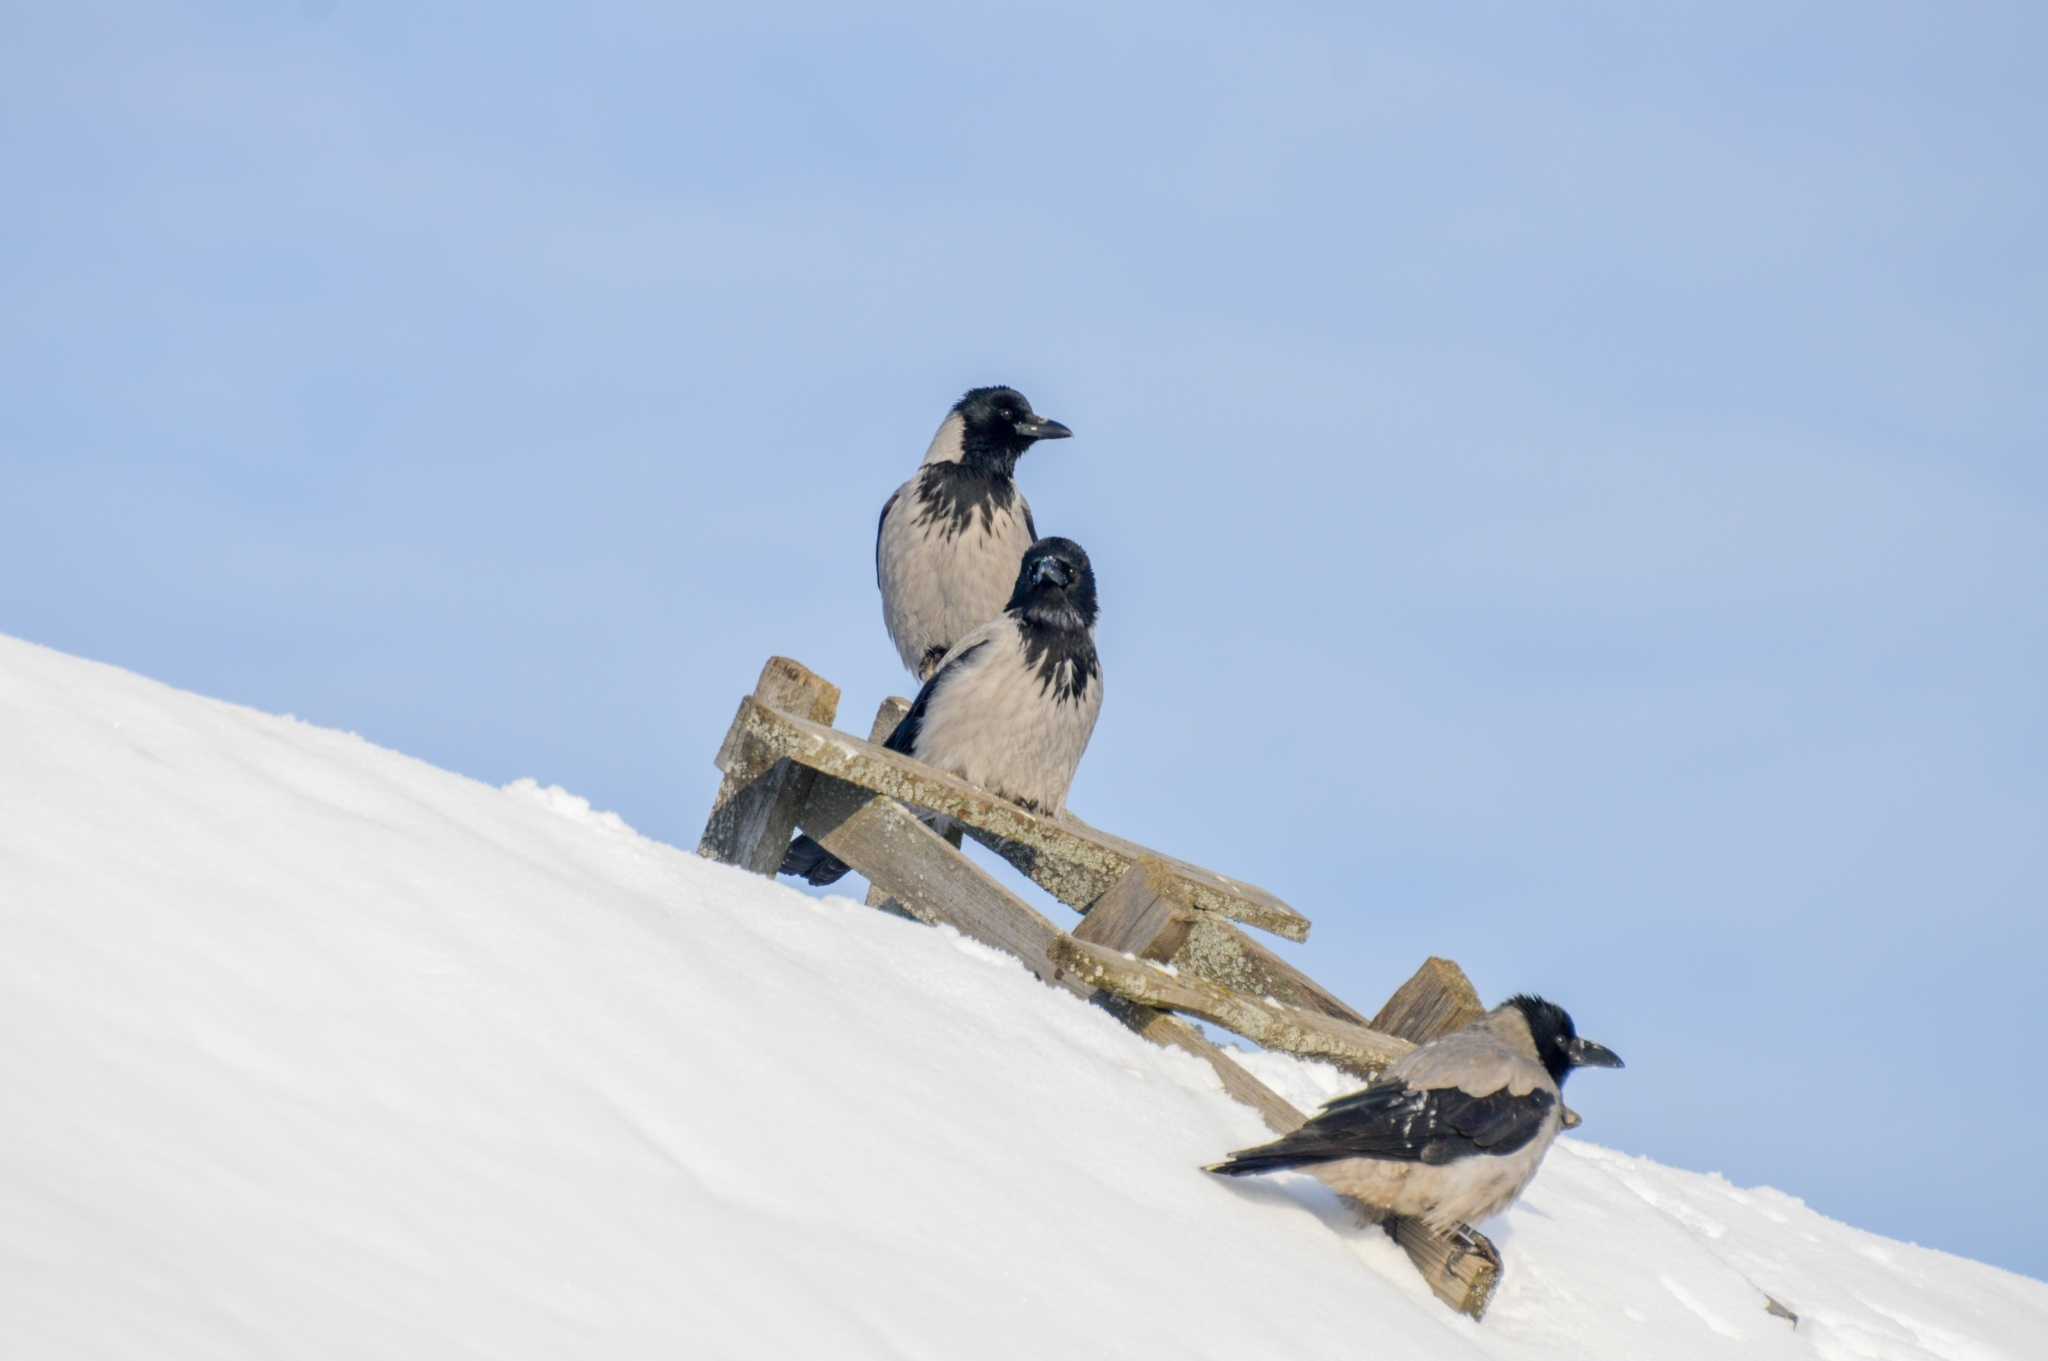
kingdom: Animalia
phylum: Chordata
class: Aves
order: Passeriformes
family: Corvidae
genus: Corvus
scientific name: Corvus cornix
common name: Hooded crow
